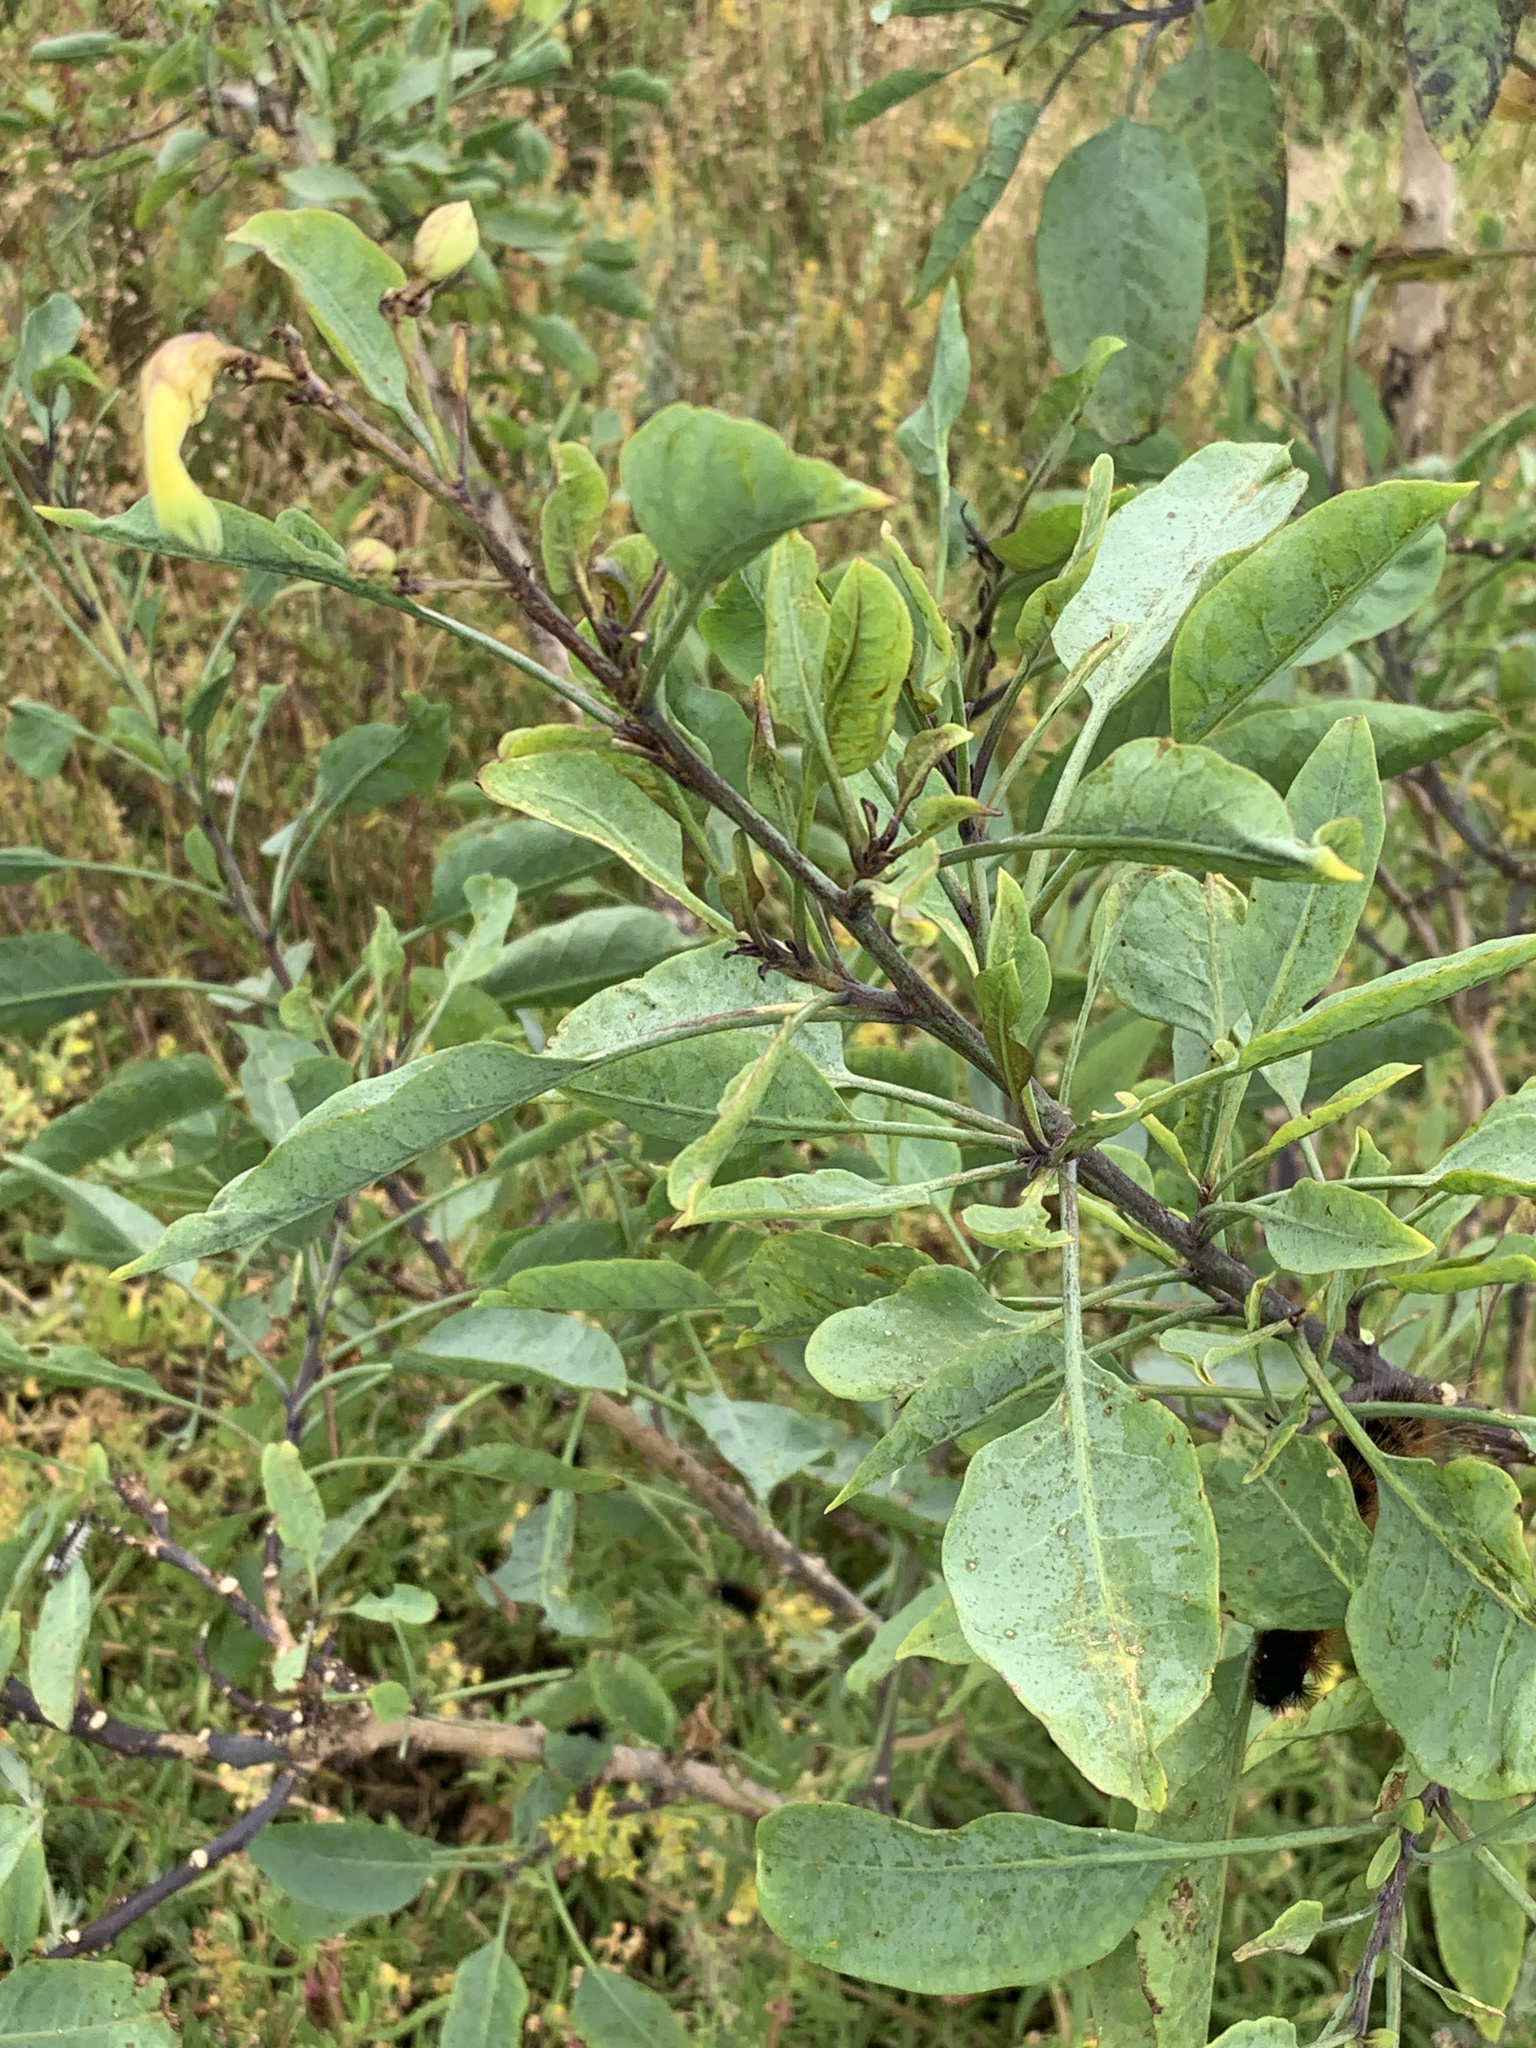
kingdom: Plantae
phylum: Tracheophyta
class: Magnoliopsida
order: Solanales
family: Solanaceae
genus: Nicotiana
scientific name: Nicotiana glauca
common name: Tree tobacco
